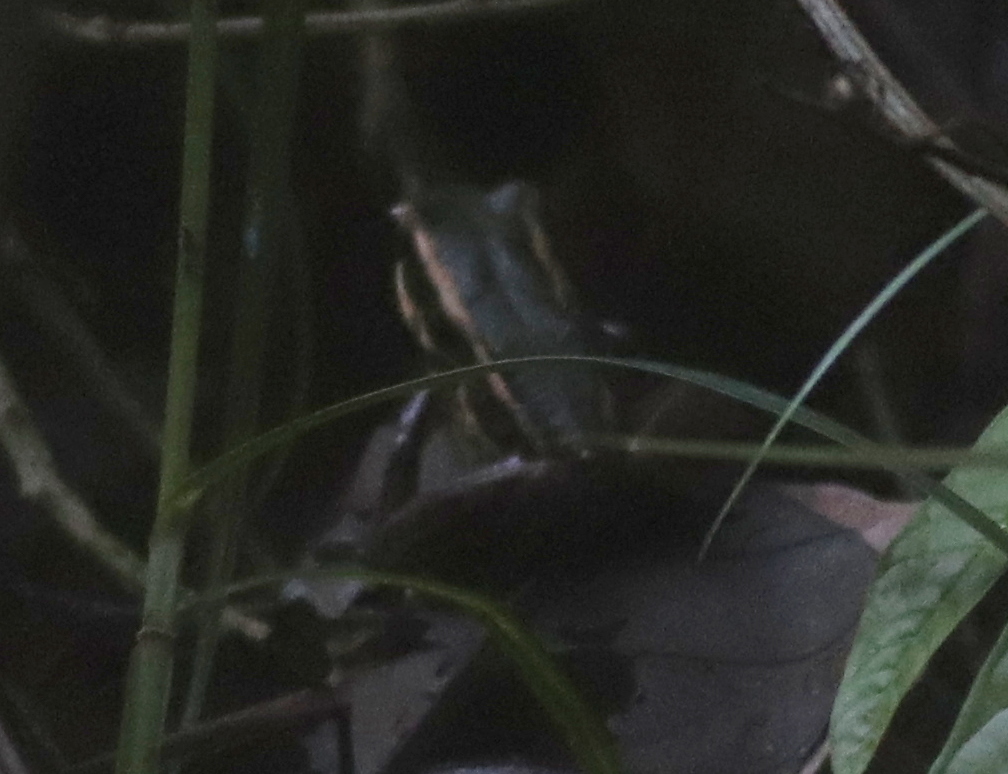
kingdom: Animalia
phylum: Chordata
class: Amphibia
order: Anura
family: Ranidae
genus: Hylarana
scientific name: Hylarana erythraea
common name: Common green frog/green paddy frog/leaf frog
